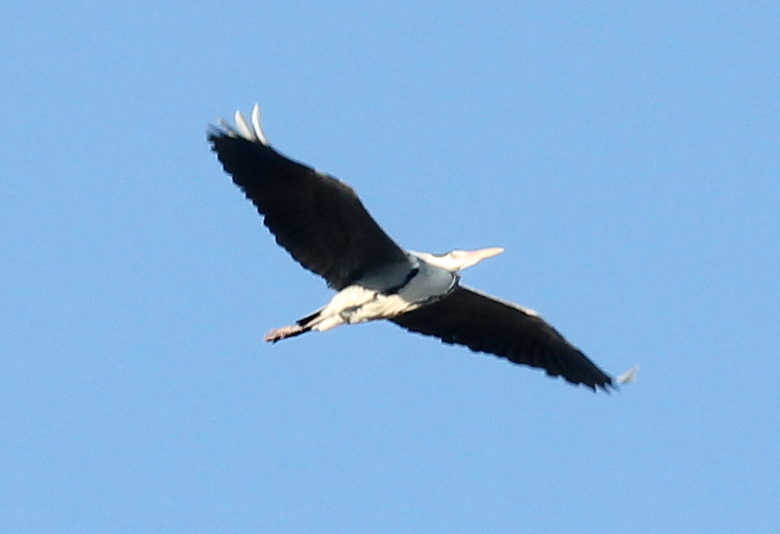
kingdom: Animalia
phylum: Chordata
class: Aves
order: Pelecaniformes
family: Ardeidae
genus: Ardea
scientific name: Ardea cinerea
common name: Grey heron
